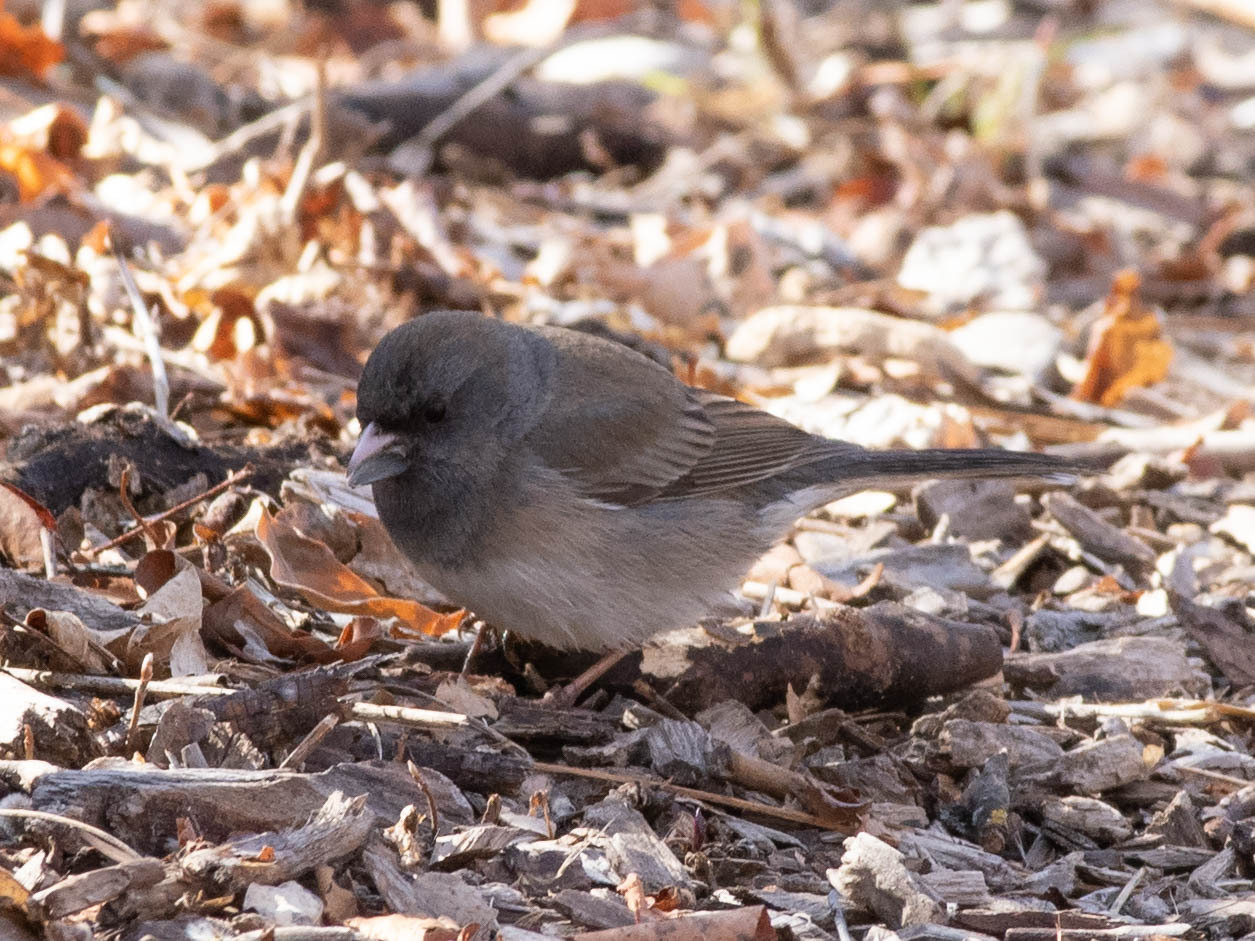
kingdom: Animalia
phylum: Chordata
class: Aves
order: Passeriformes
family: Passerellidae
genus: Junco
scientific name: Junco hyemalis
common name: Dark-eyed junco
